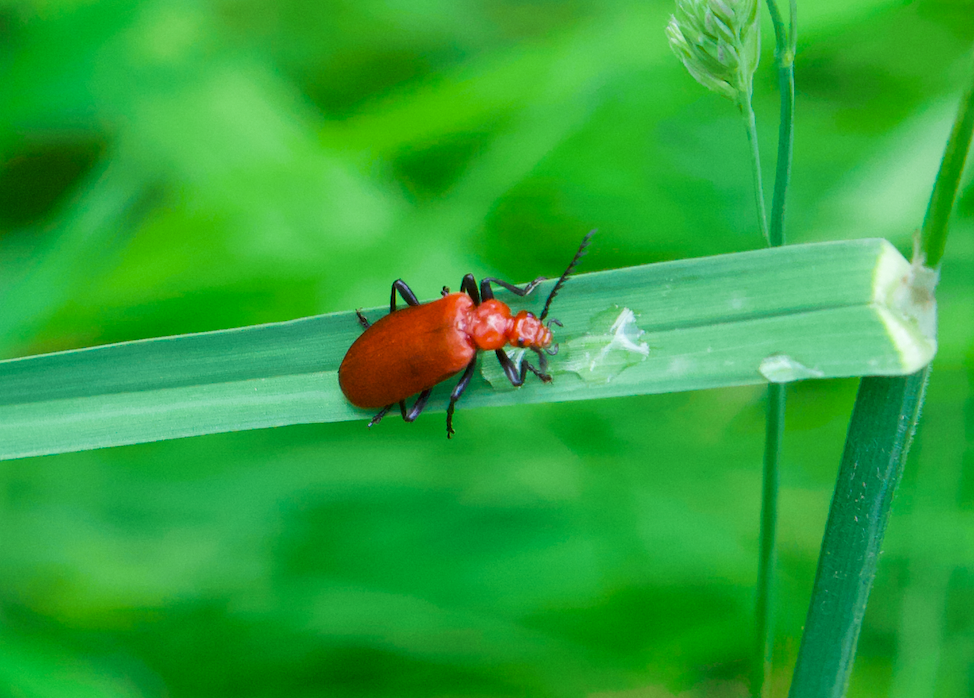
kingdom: Animalia
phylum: Arthropoda
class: Insecta
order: Coleoptera
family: Pyrochroidae
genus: Pyrochroa
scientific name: Pyrochroa serraticornis
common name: Red-headed cardinal beetle
